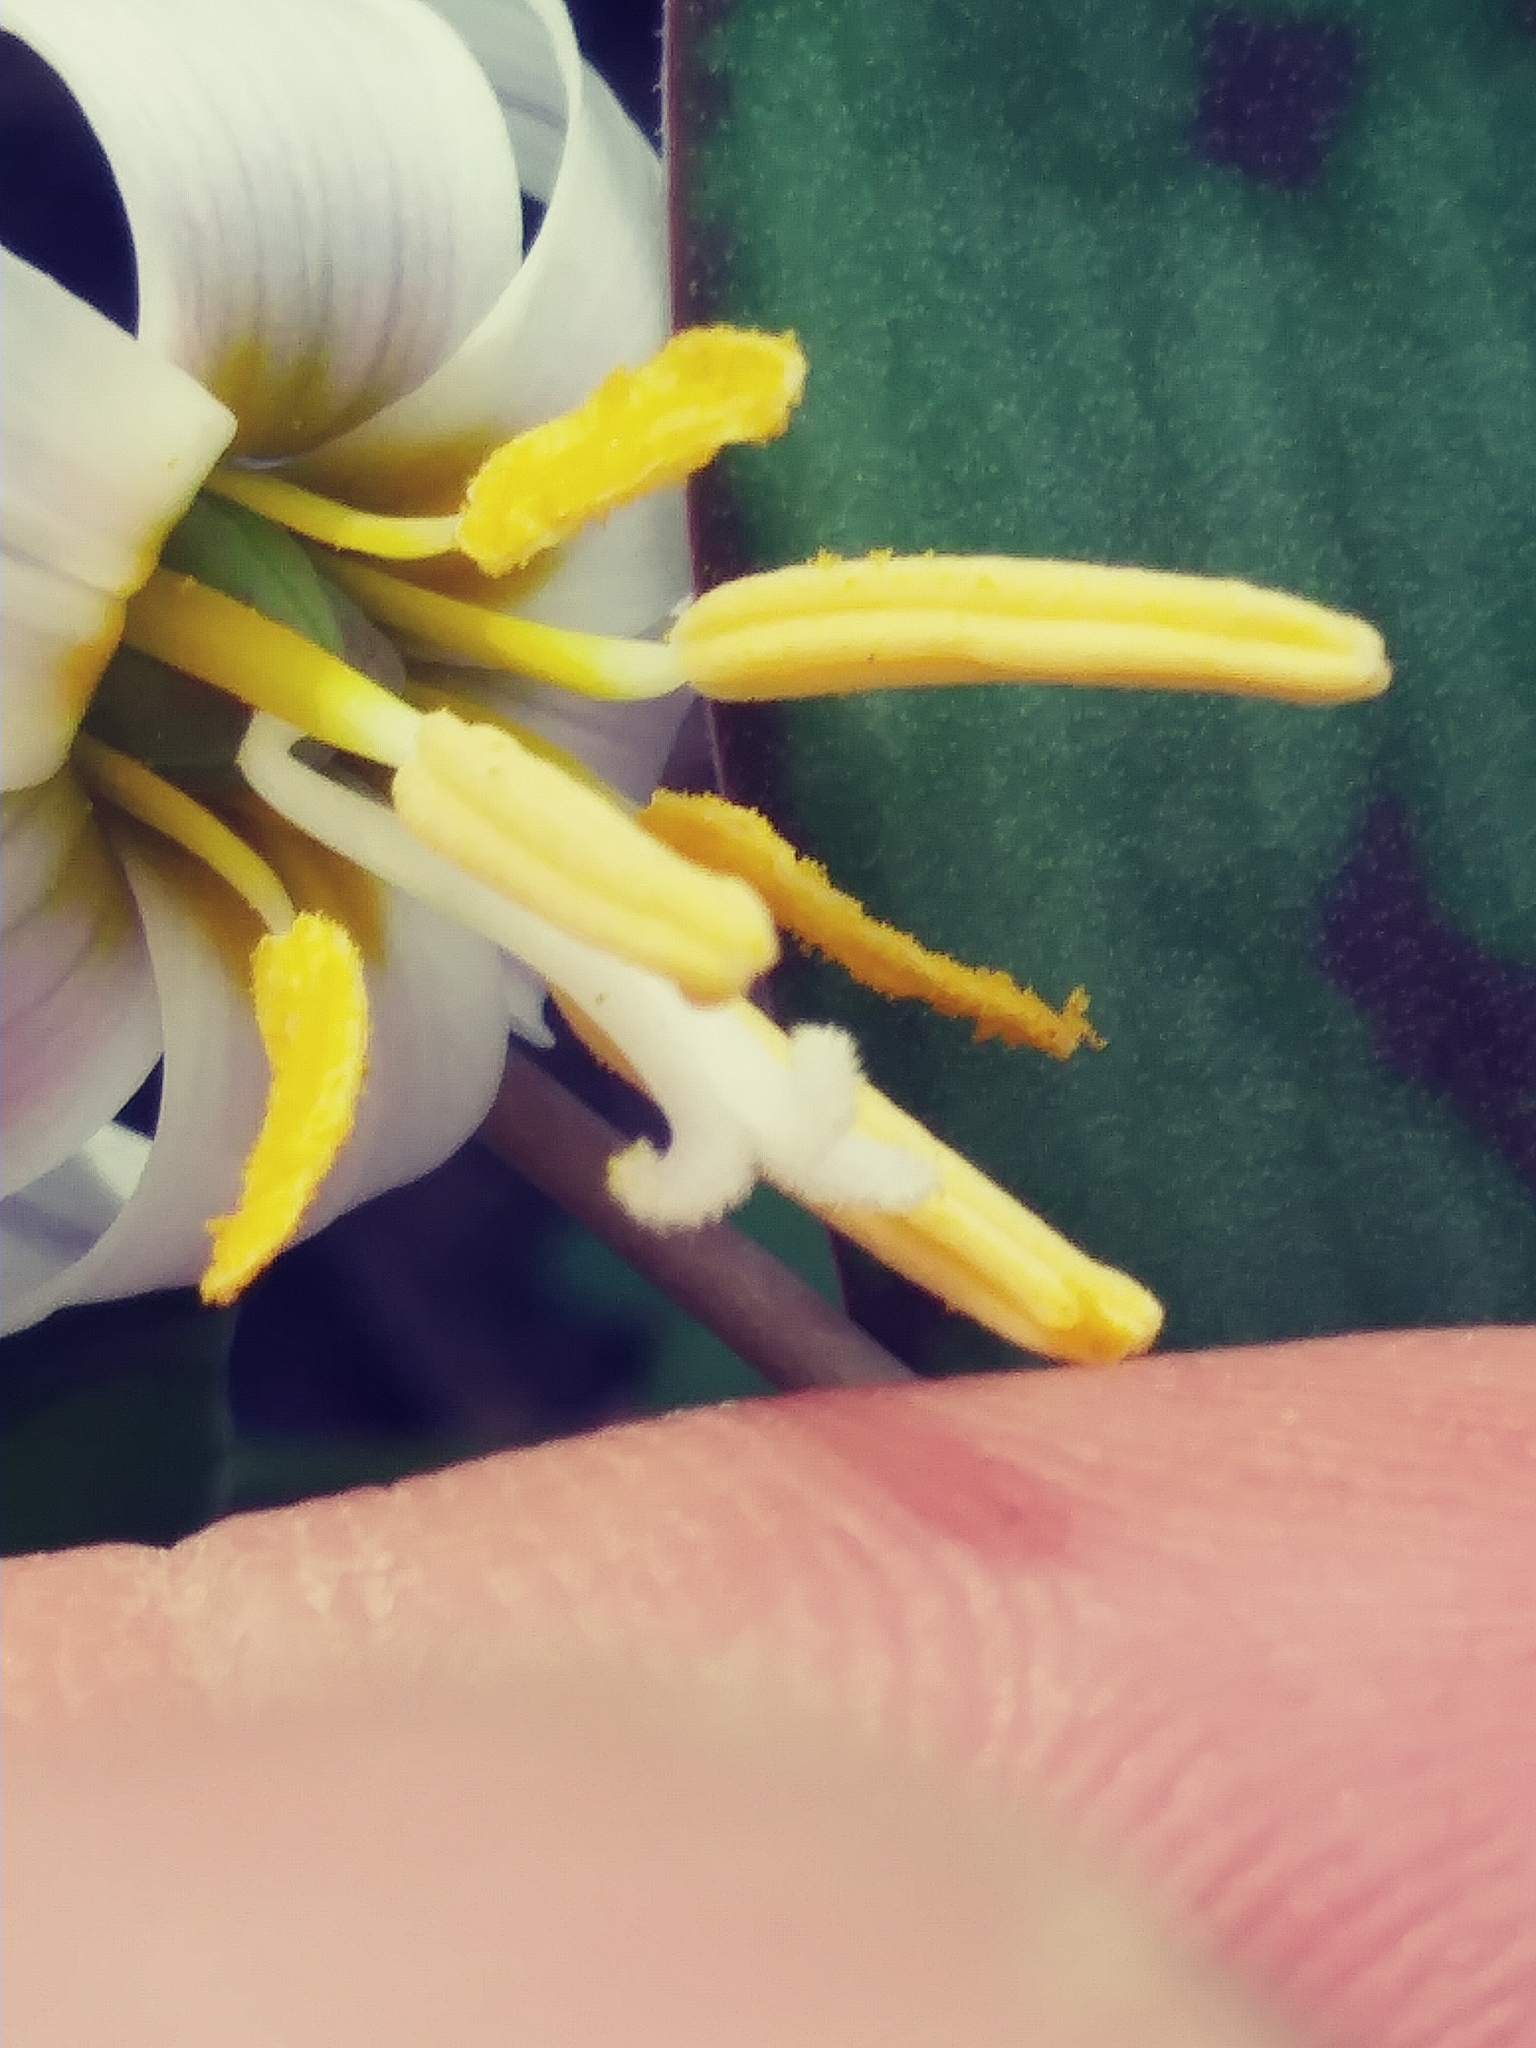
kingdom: Plantae
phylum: Tracheophyta
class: Liliopsida
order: Liliales
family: Liliaceae
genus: Erythronium
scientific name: Erythronium albidum
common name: White trout-lily
